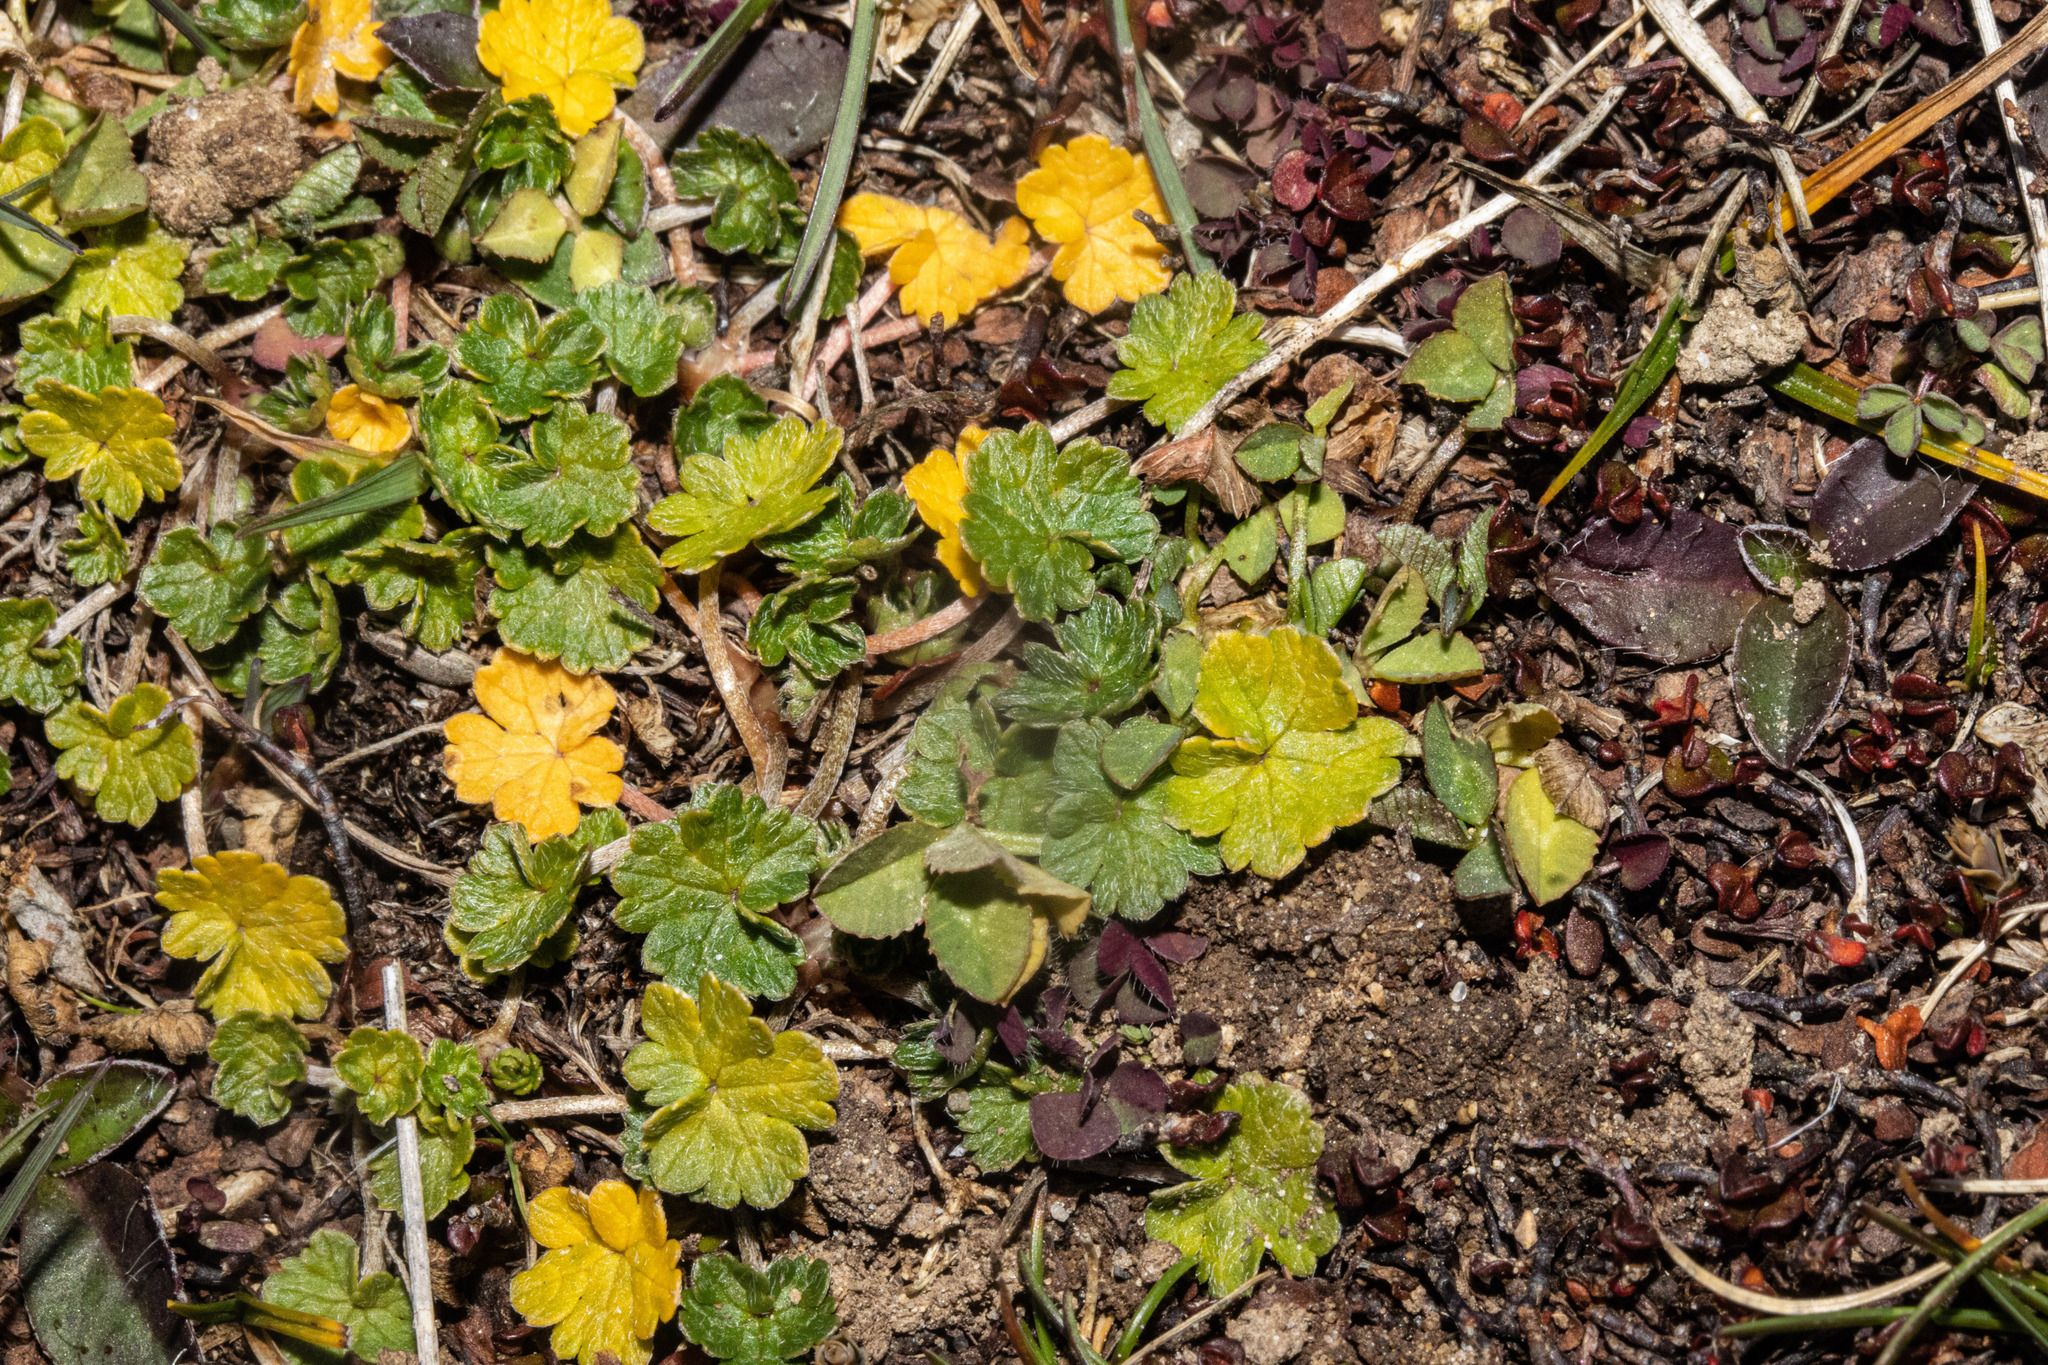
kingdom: Plantae
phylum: Tracheophyta
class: Magnoliopsida
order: Geraniales
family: Geraniaceae
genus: Geranium
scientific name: Geranium brevicaule
